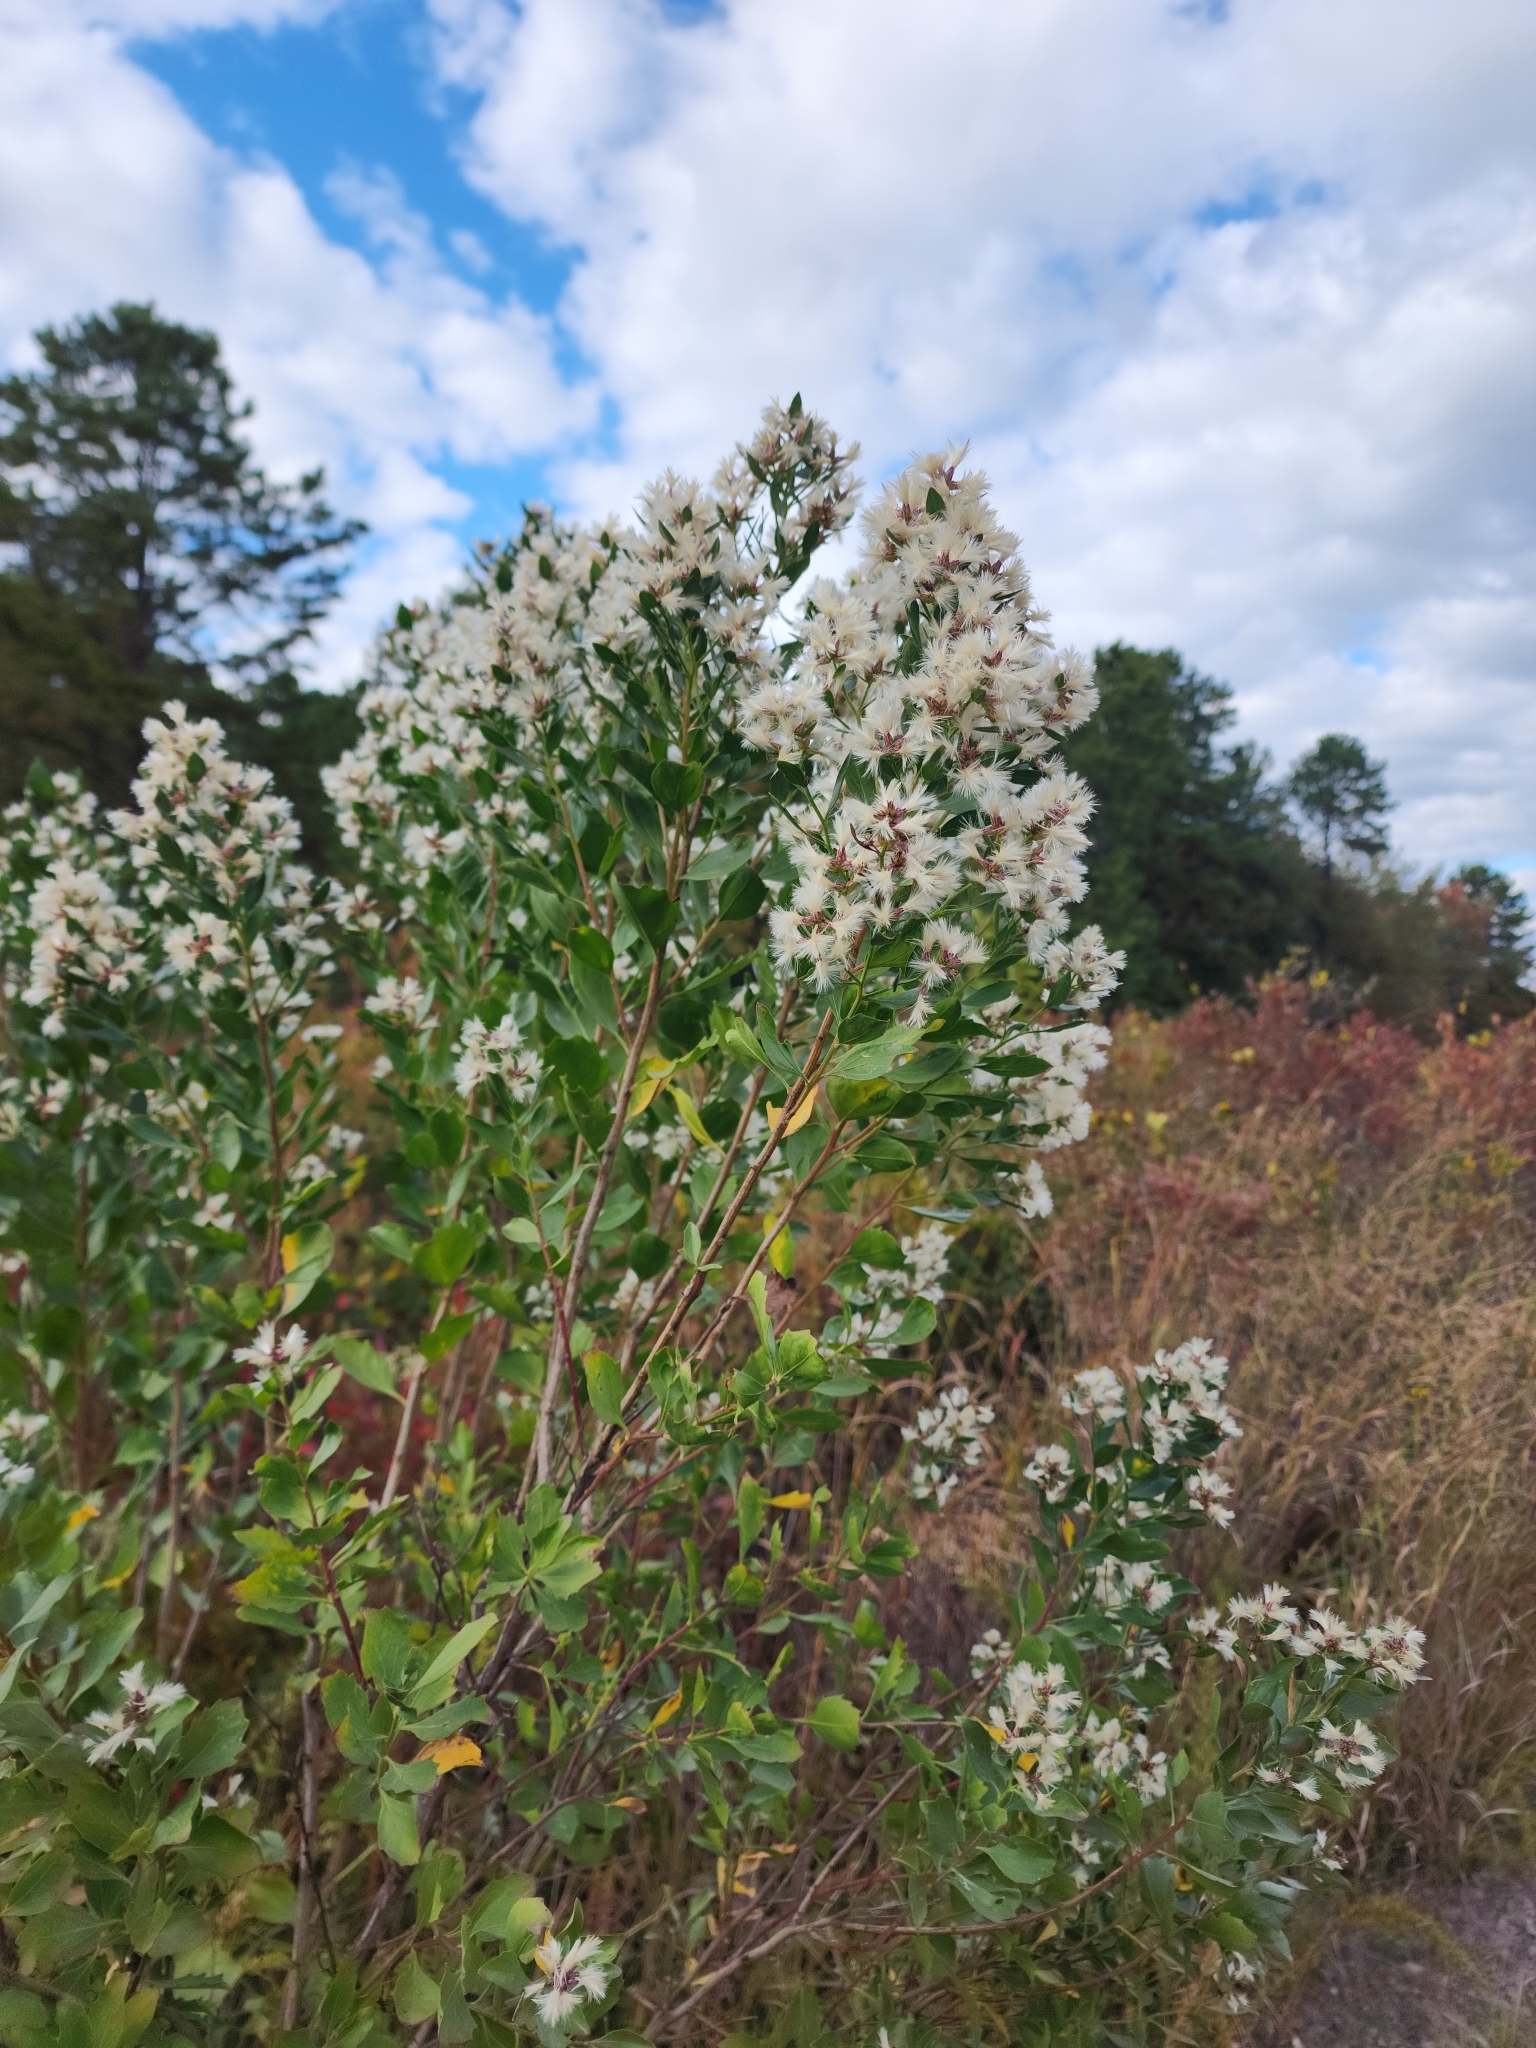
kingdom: Plantae
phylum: Tracheophyta
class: Magnoliopsida
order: Asterales
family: Asteraceae
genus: Baccharis
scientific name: Baccharis halimifolia
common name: Eastern baccharis
